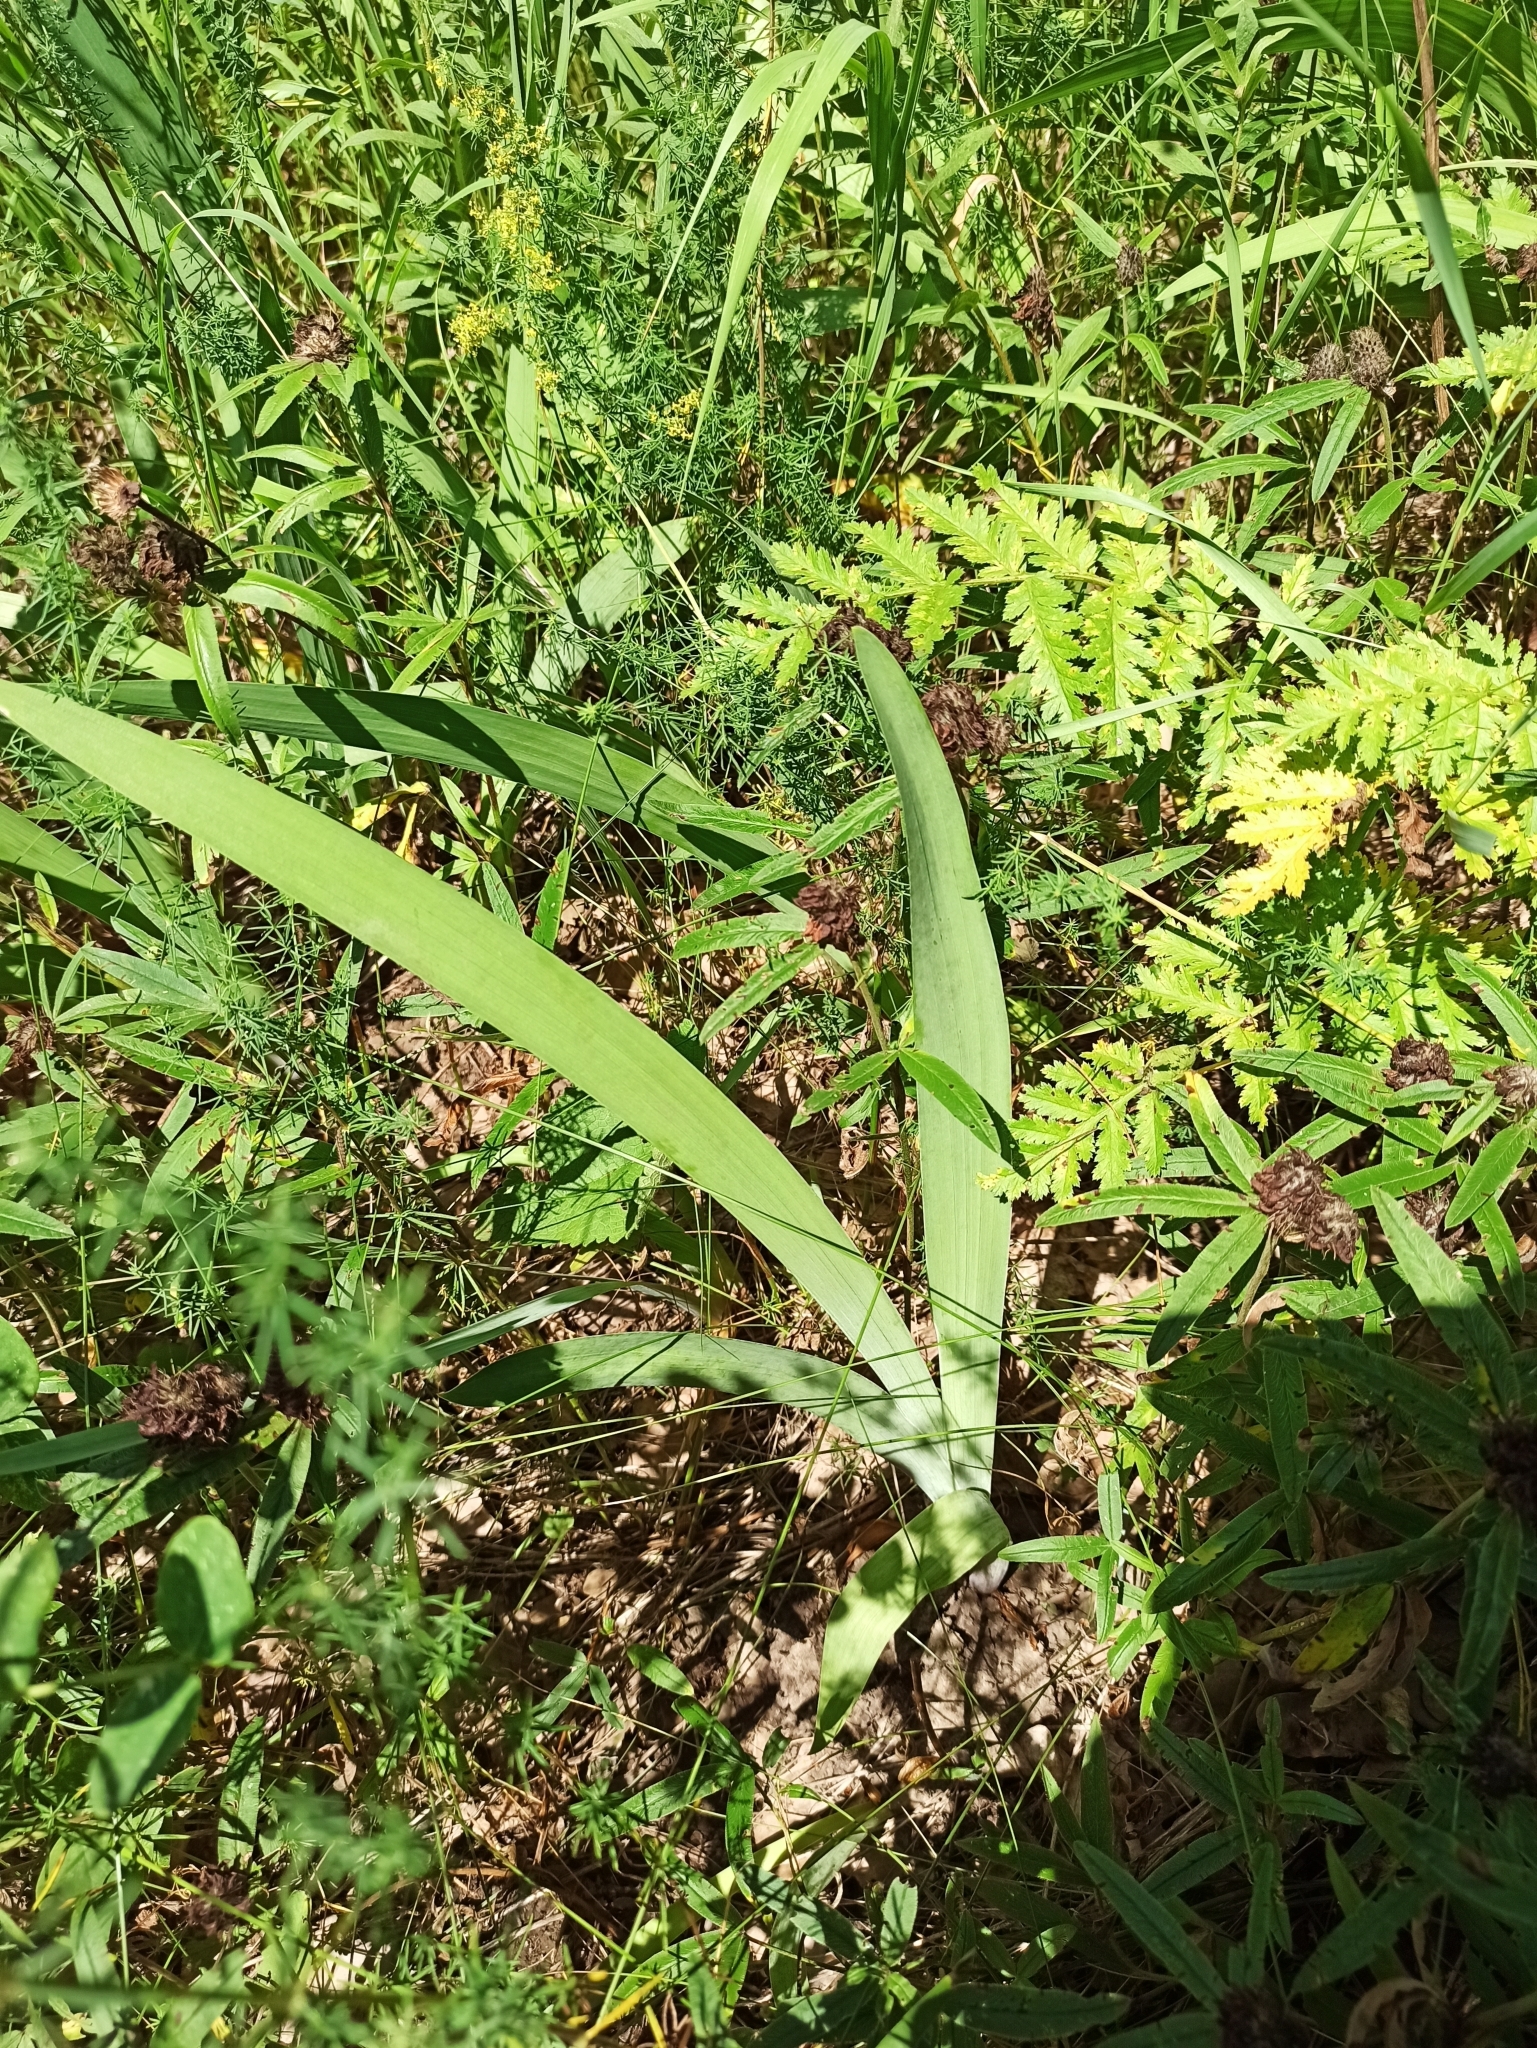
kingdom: Plantae
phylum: Tracheophyta
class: Liliopsida
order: Asparagales
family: Iridaceae
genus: Iris
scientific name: Iris aphylla
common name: Stool iris
